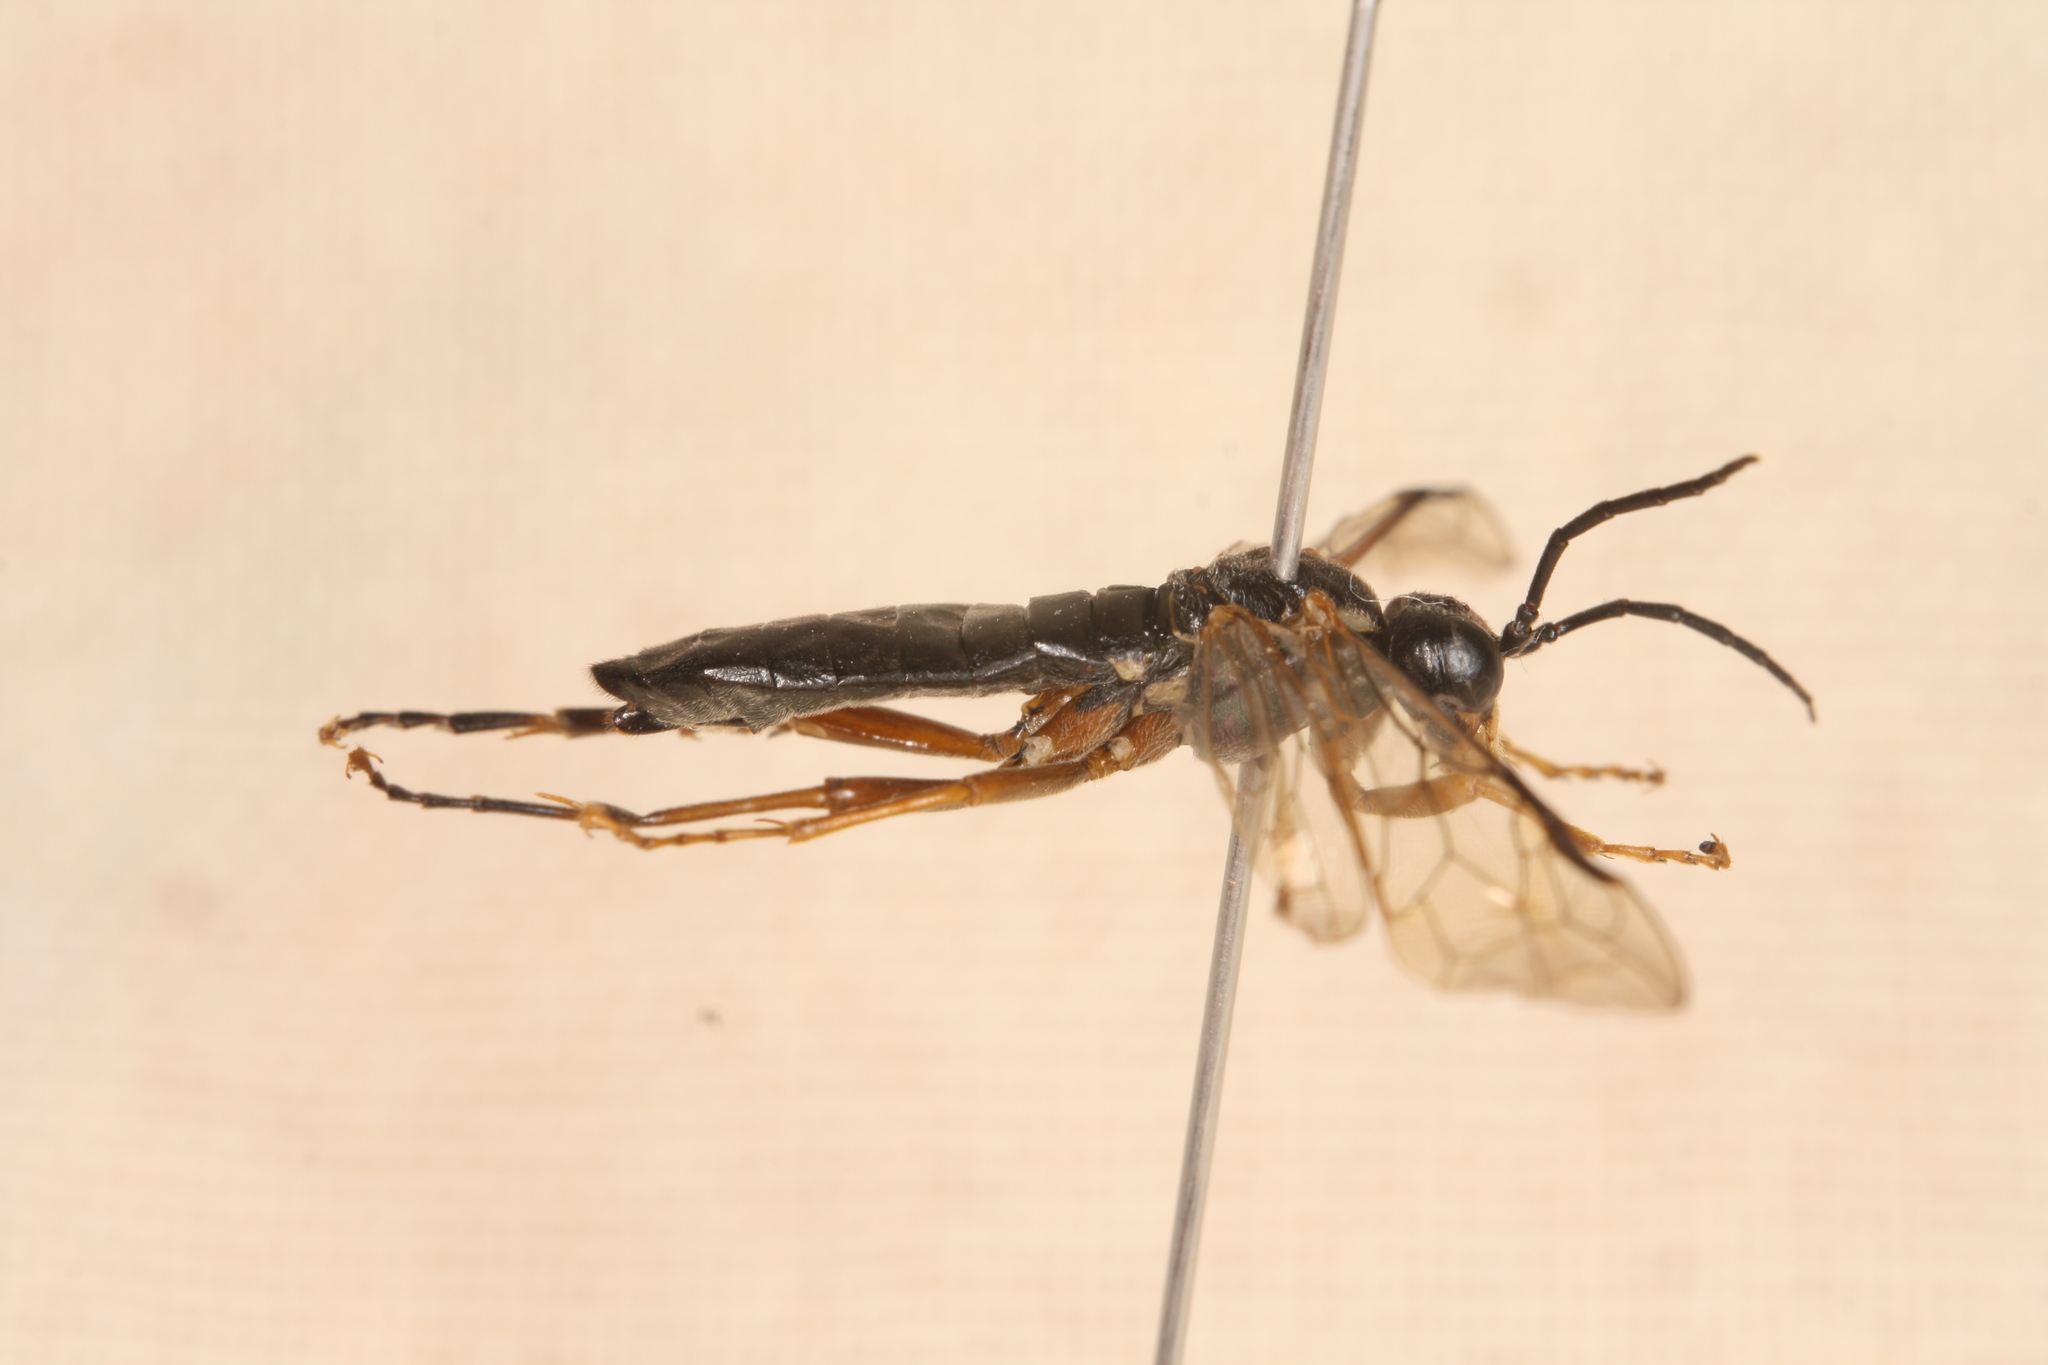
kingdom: Animalia
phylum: Arthropoda
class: Insecta
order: Hymenoptera
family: Tenthredinidae
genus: Tenthredo
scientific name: Tenthredo rubricoxis
